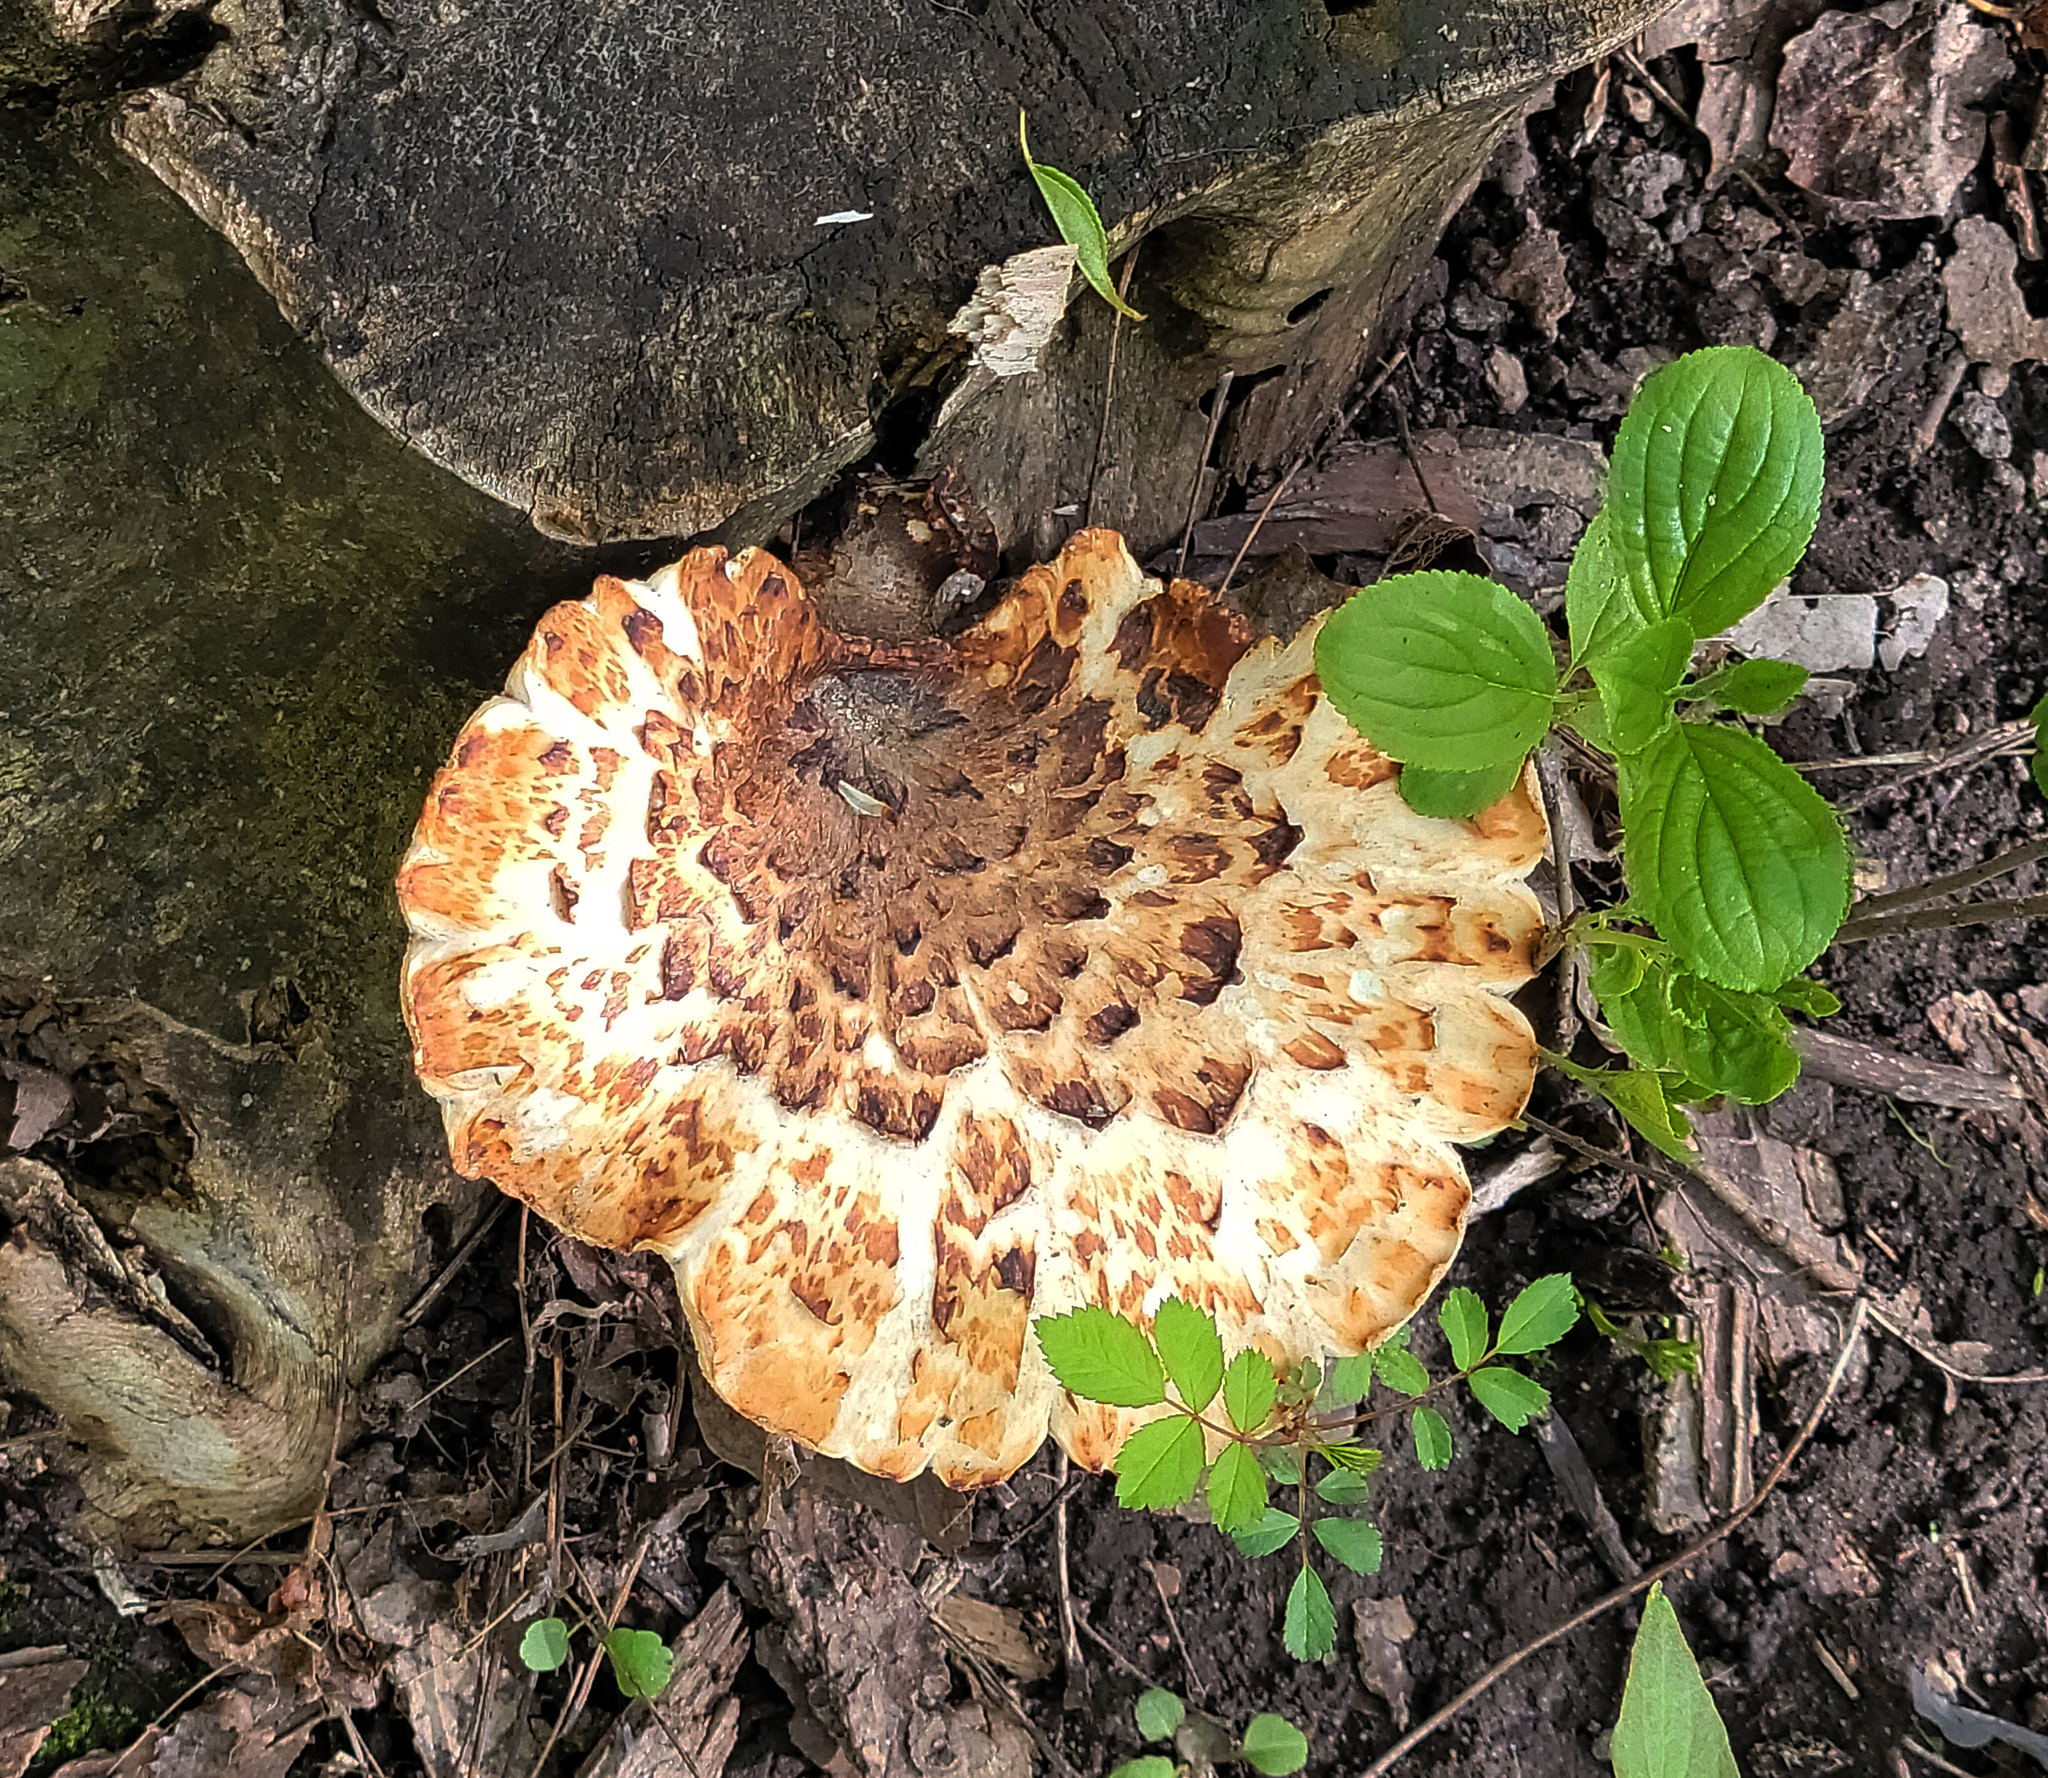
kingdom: Fungi
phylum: Basidiomycota
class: Agaricomycetes
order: Polyporales
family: Polyporaceae
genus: Cerioporus
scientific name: Cerioporus squamosus
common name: Dryad's saddle
